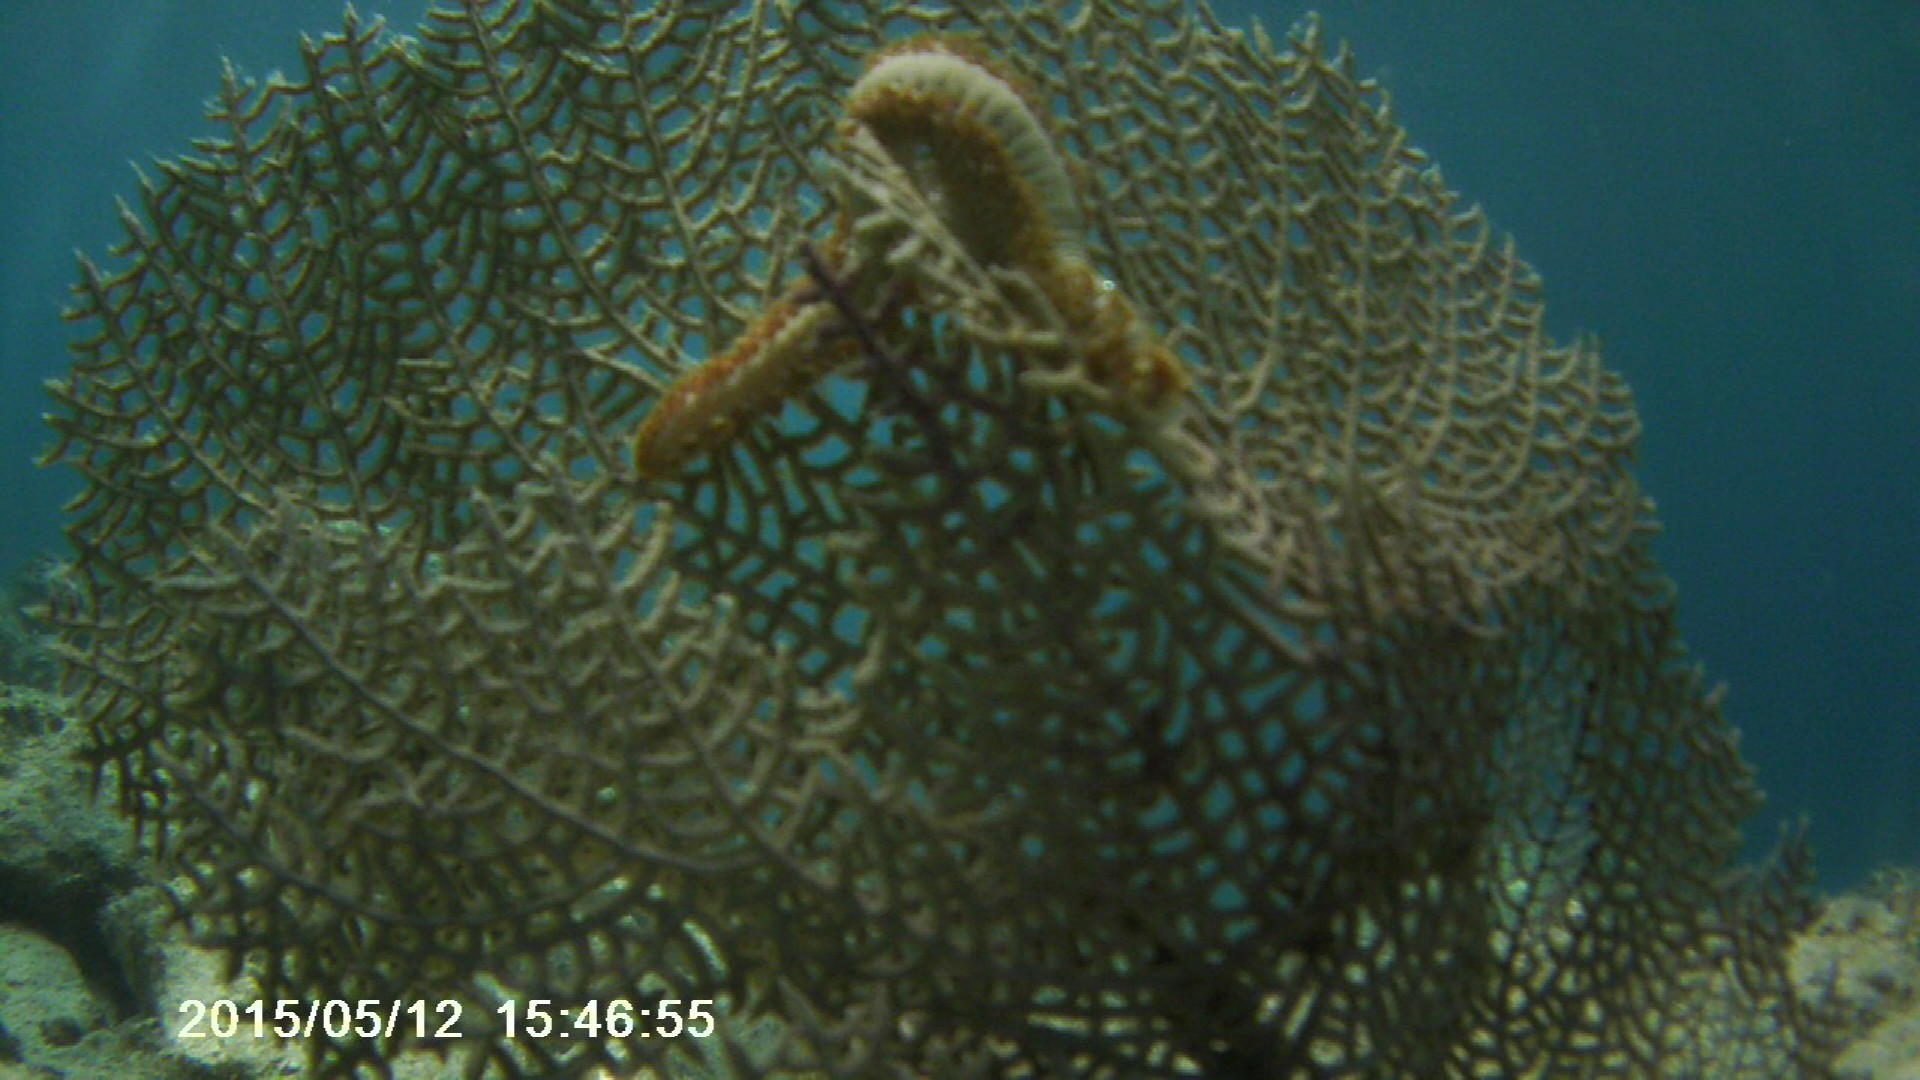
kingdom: Animalia
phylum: Cnidaria
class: Anthozoa
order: Malacalcyonacea
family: Gorgoniidae
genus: Gorgonia
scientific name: Gorgonia ventalina
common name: Common sea fan
